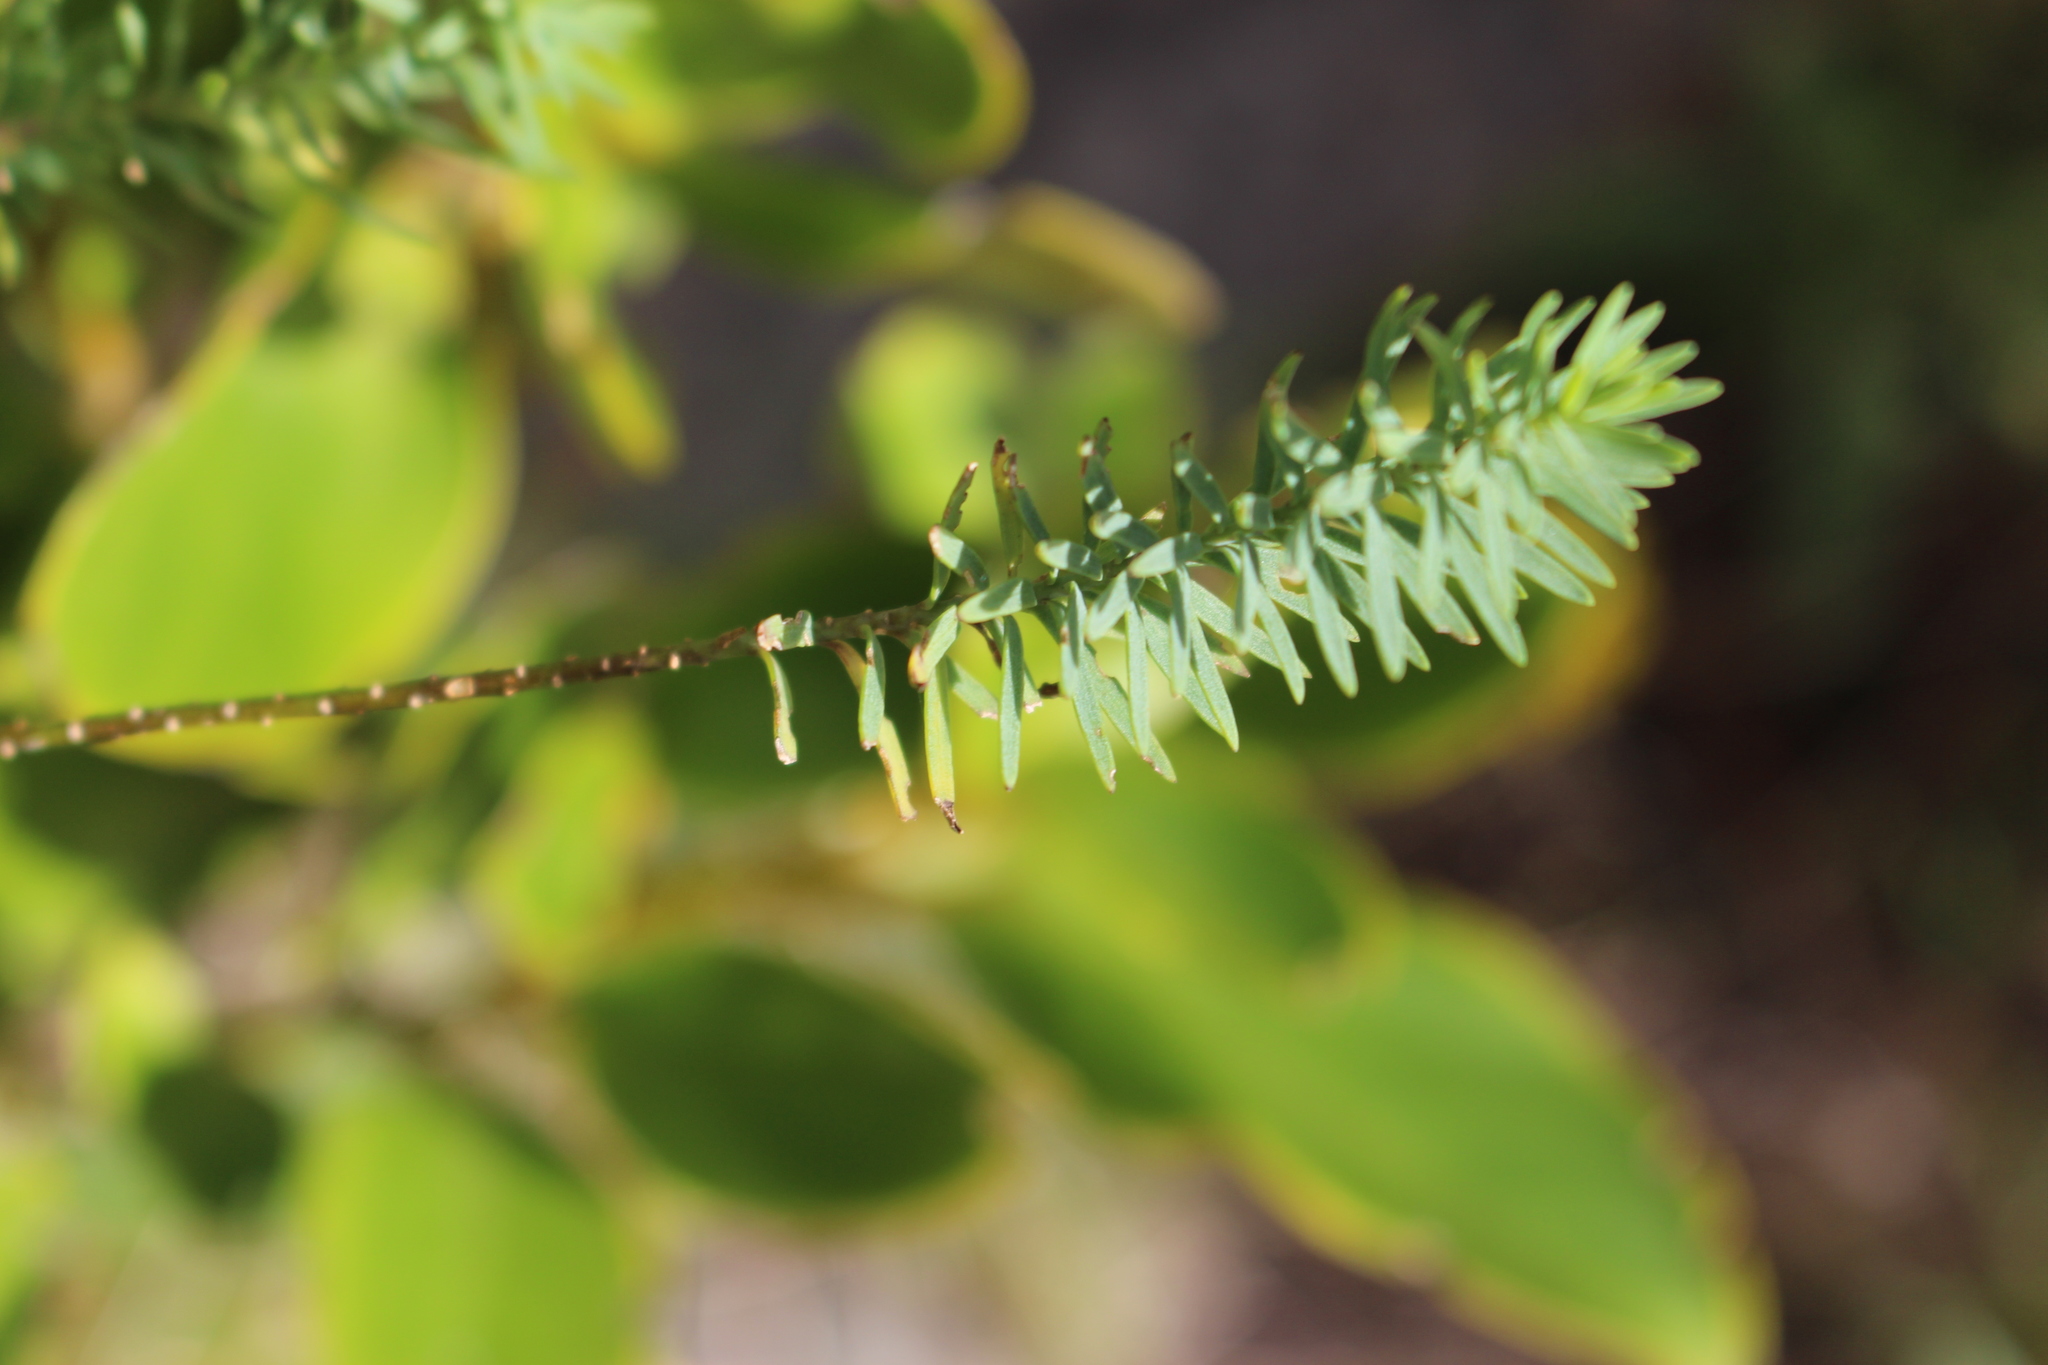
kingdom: Plantae
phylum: Tracheophyta
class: Magnoliopsida
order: Malpighiales
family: Linaceae
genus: Linum
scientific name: Linum monogynum
